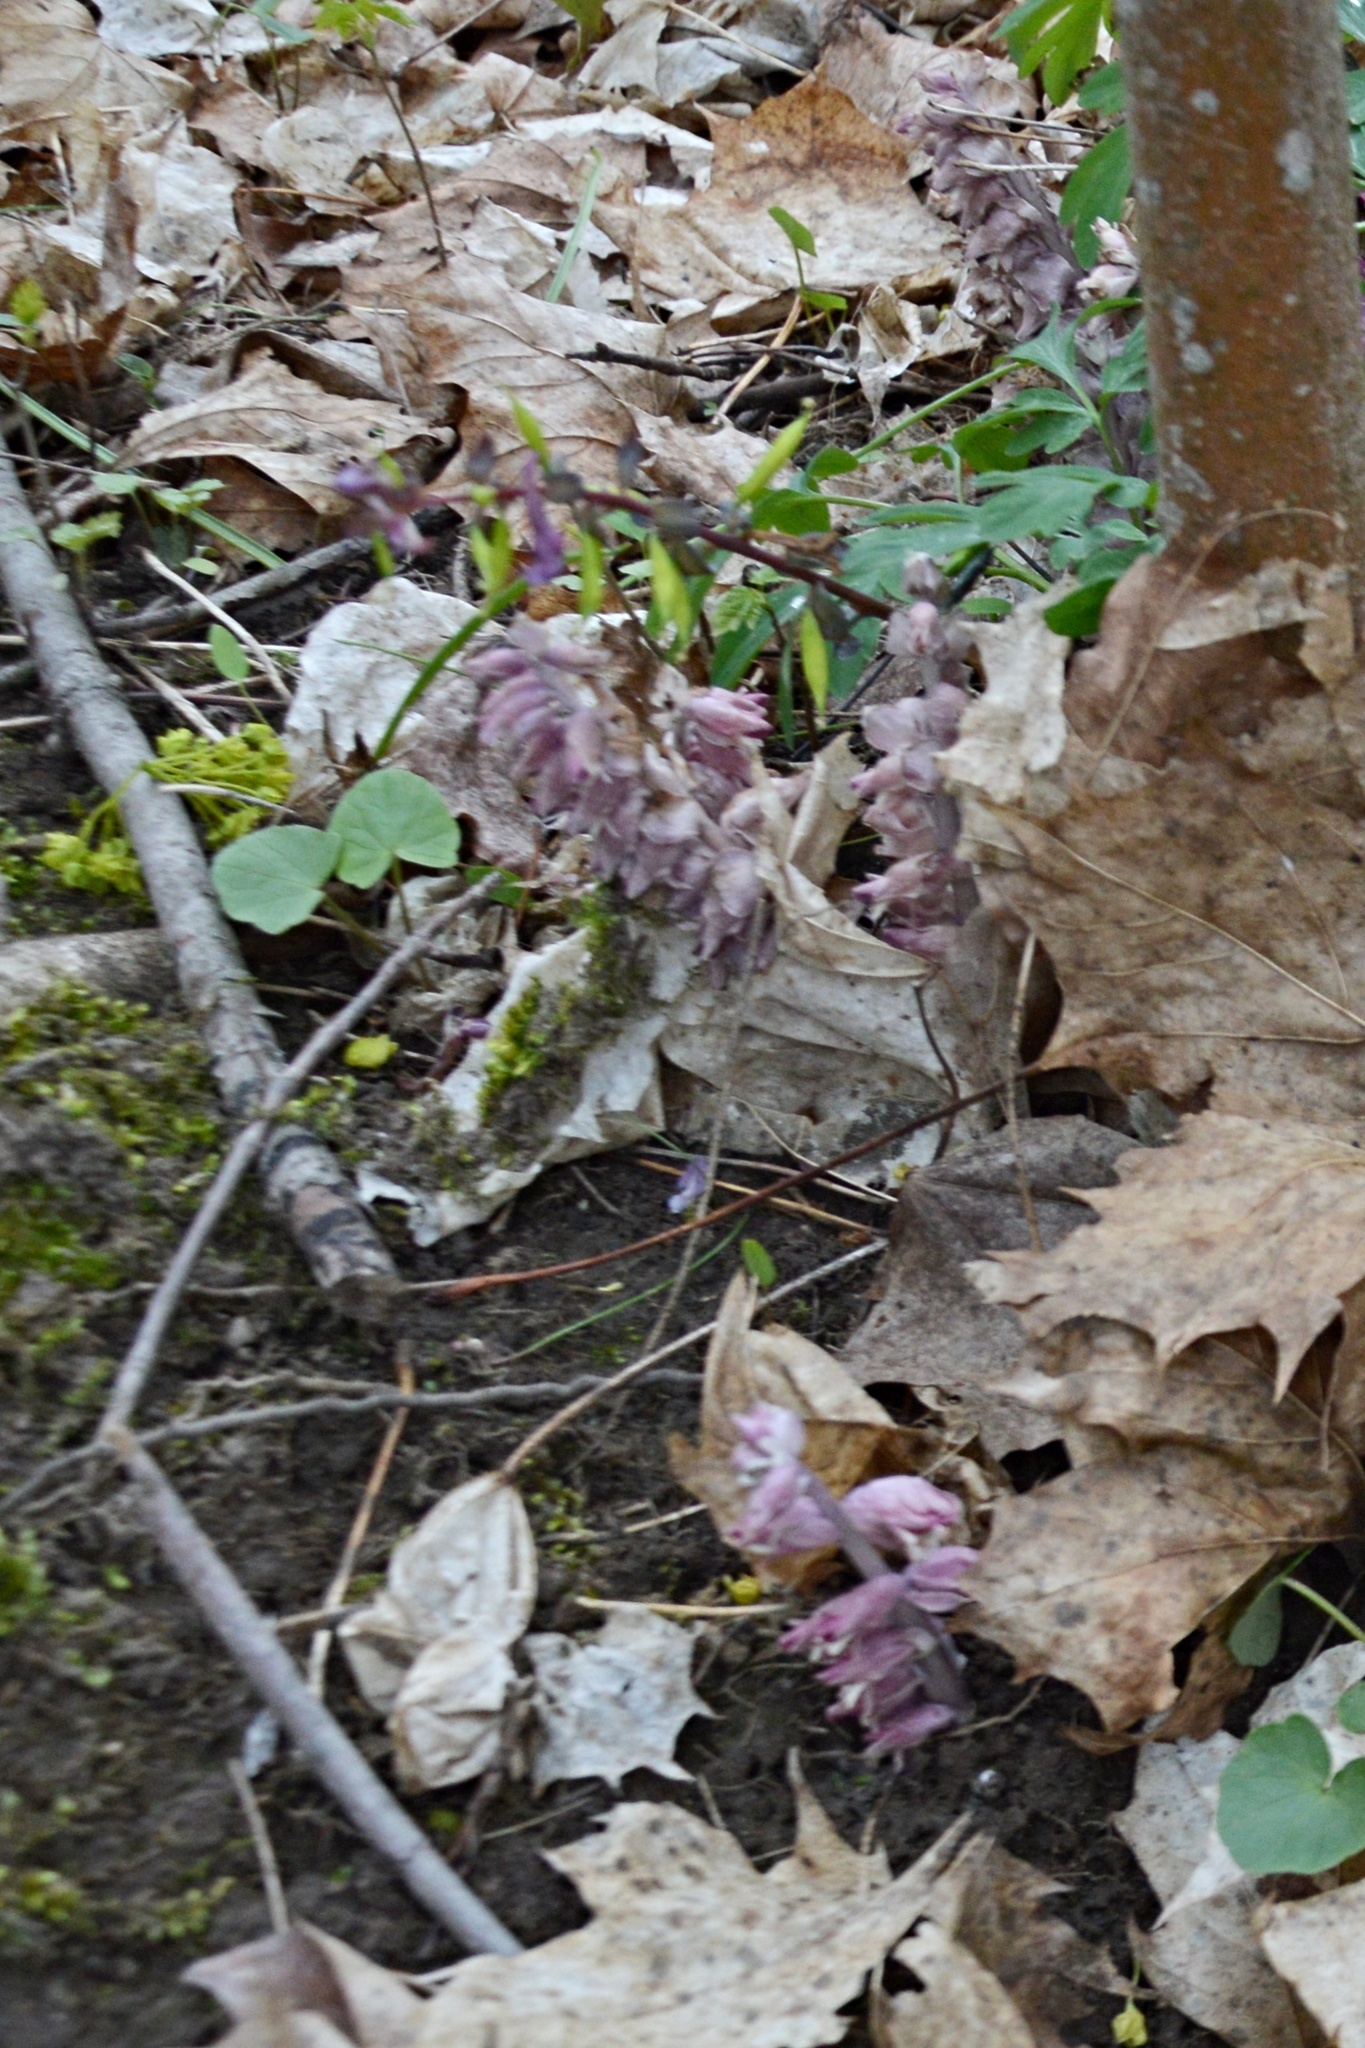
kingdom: Plantae
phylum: Tracheophyta
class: Magnoliopsida
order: Lamiales
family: Orobanchaceae
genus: Lathraea
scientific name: Lathraea squamaria
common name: Toothwort
